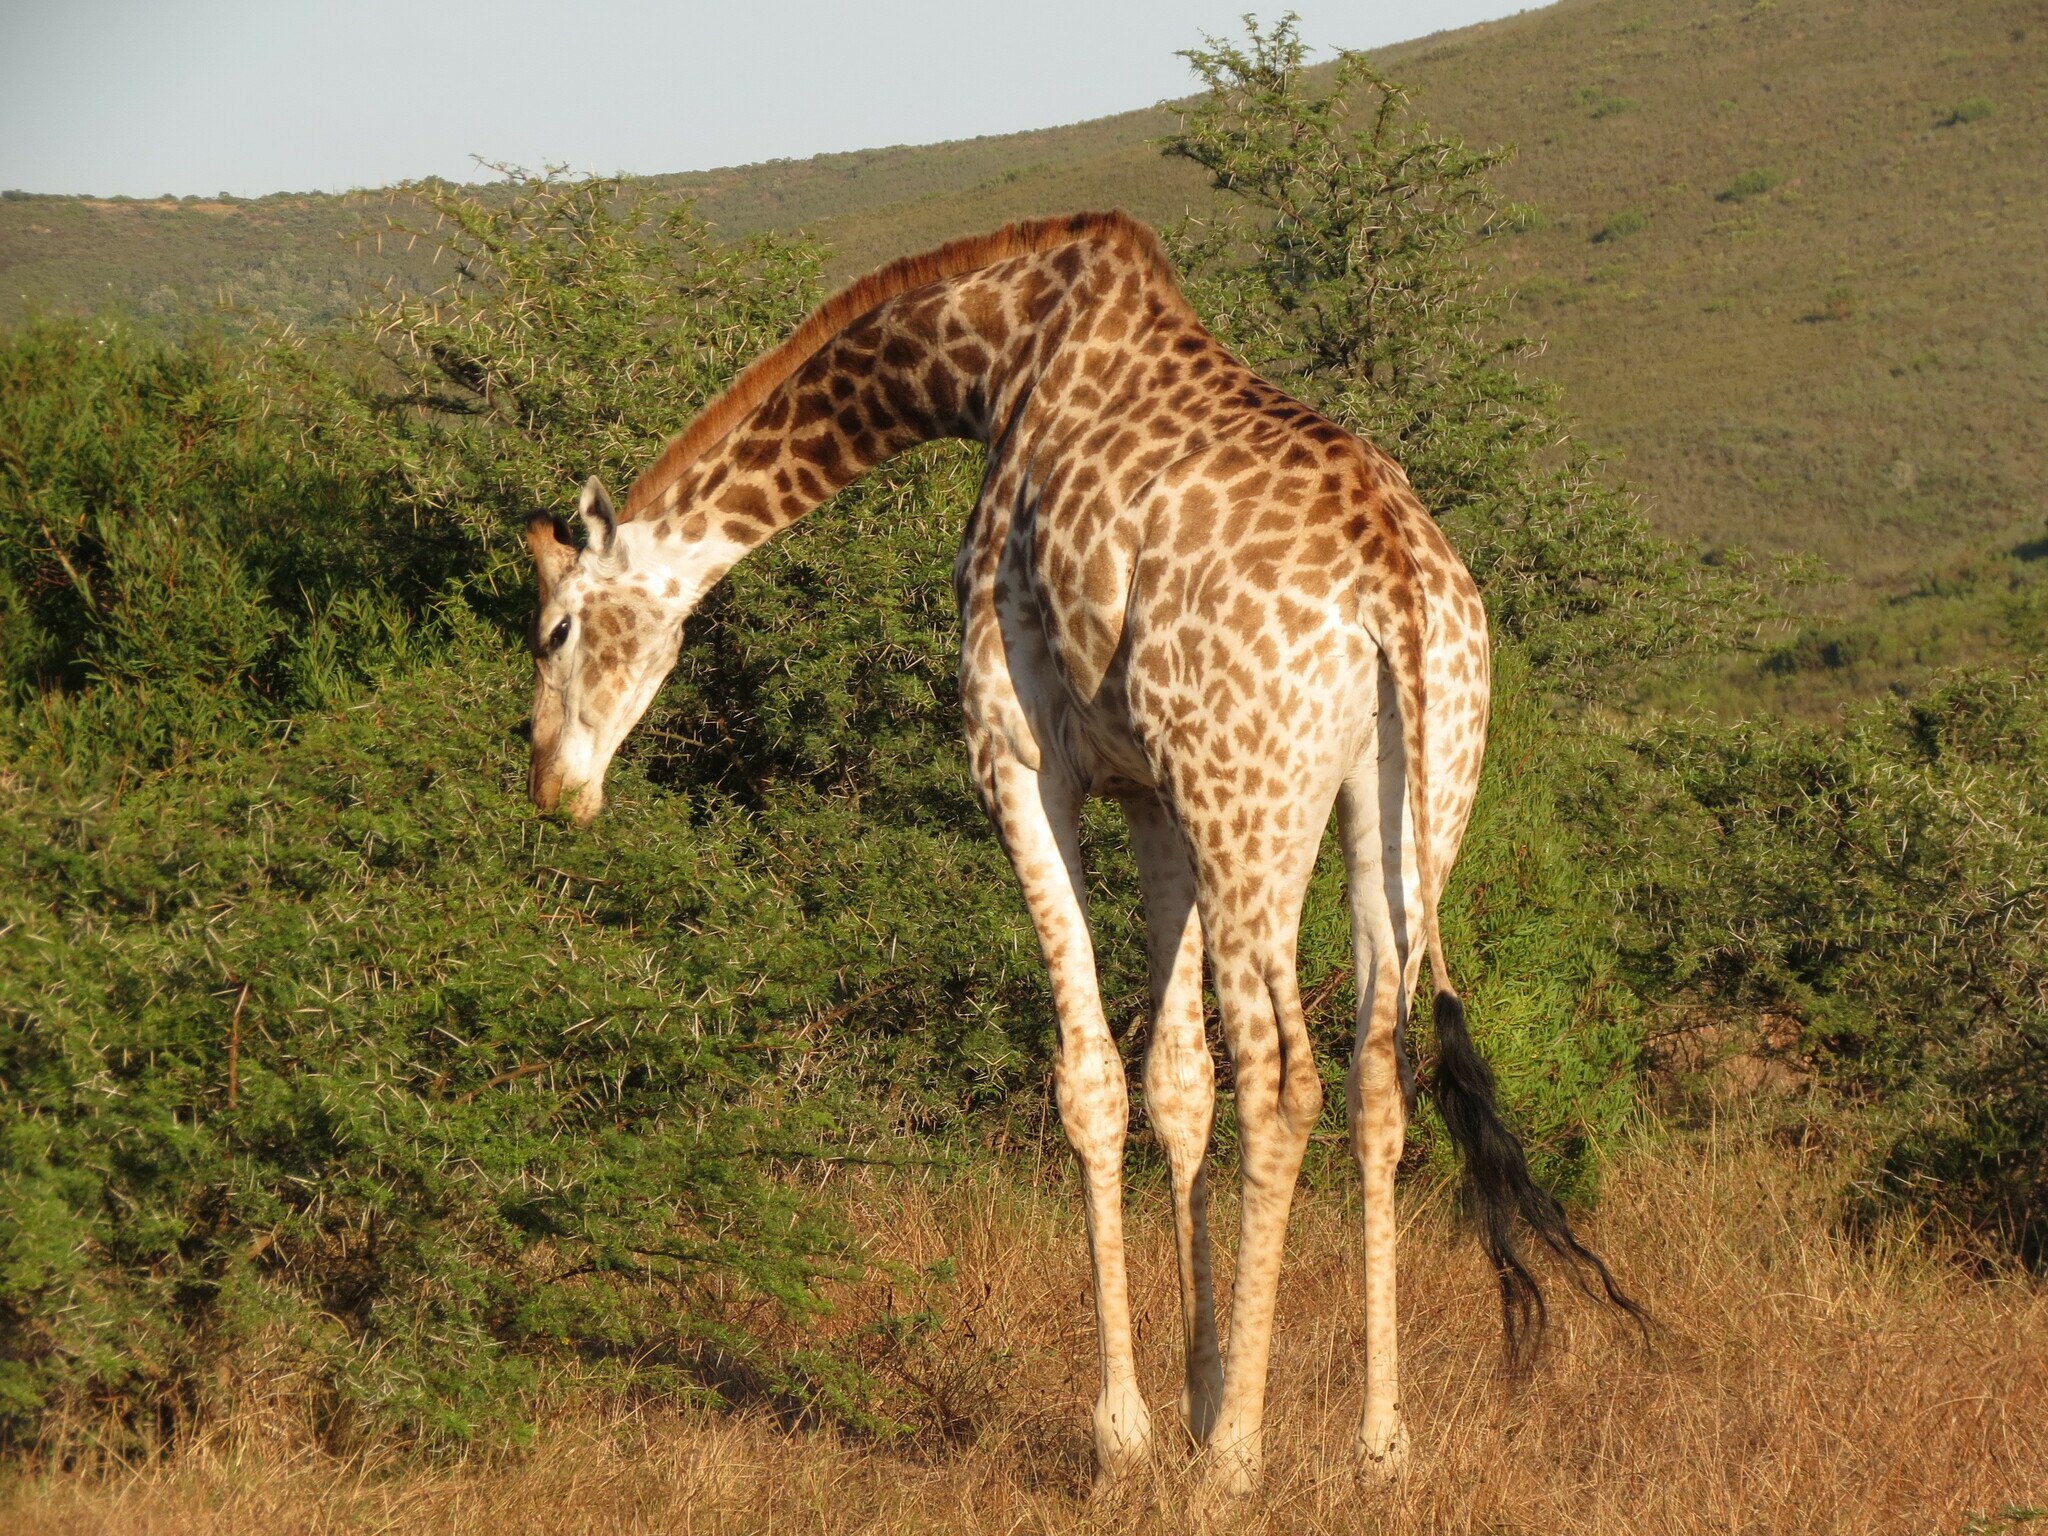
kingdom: Animalia
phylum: Chordata
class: Mammalia
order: Artiodactyla
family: Giraffidae
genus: Giraffa
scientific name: Giraffa giraffa
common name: Southern giraffe
